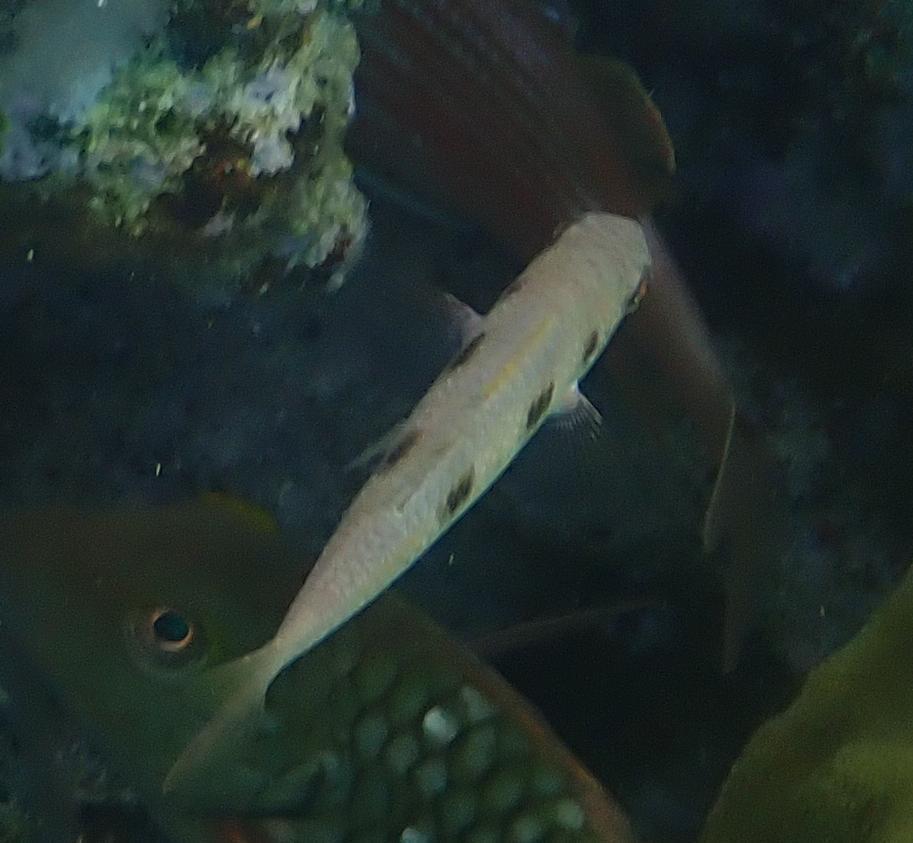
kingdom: Animalia
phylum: Chordata
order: Perciformes
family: Mullidae
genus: Pseudupeneus
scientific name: Pseudupeneus maculatus
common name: Spotted goatfish
